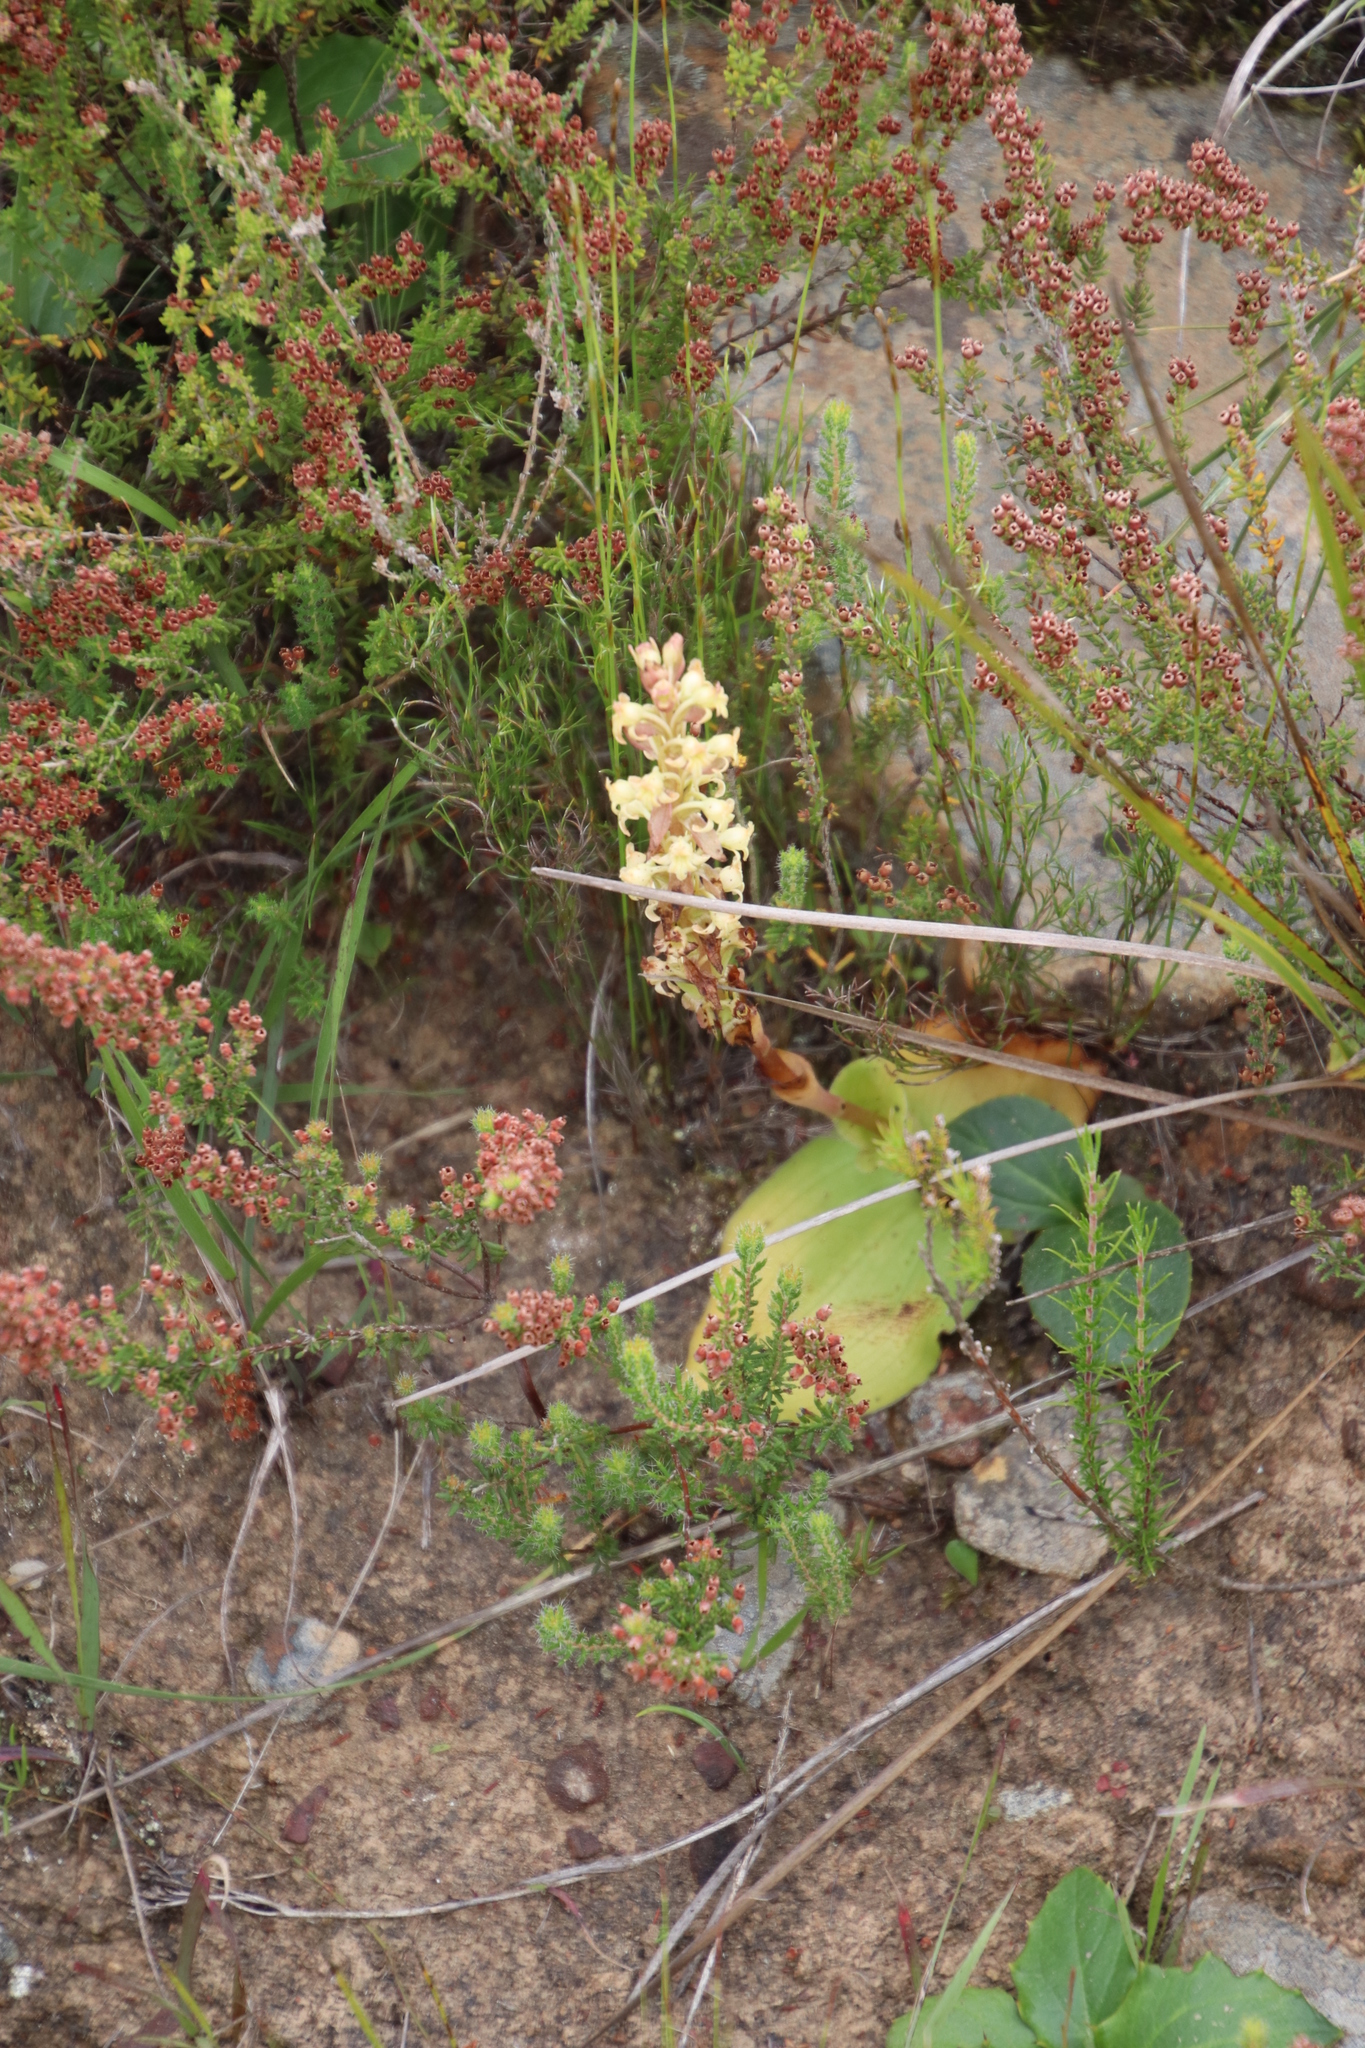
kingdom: Plantae
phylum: Tracheophyta
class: Liliopsida
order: Asparagales
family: Orchidaceae
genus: Satyrium
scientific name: Satyrium humile
